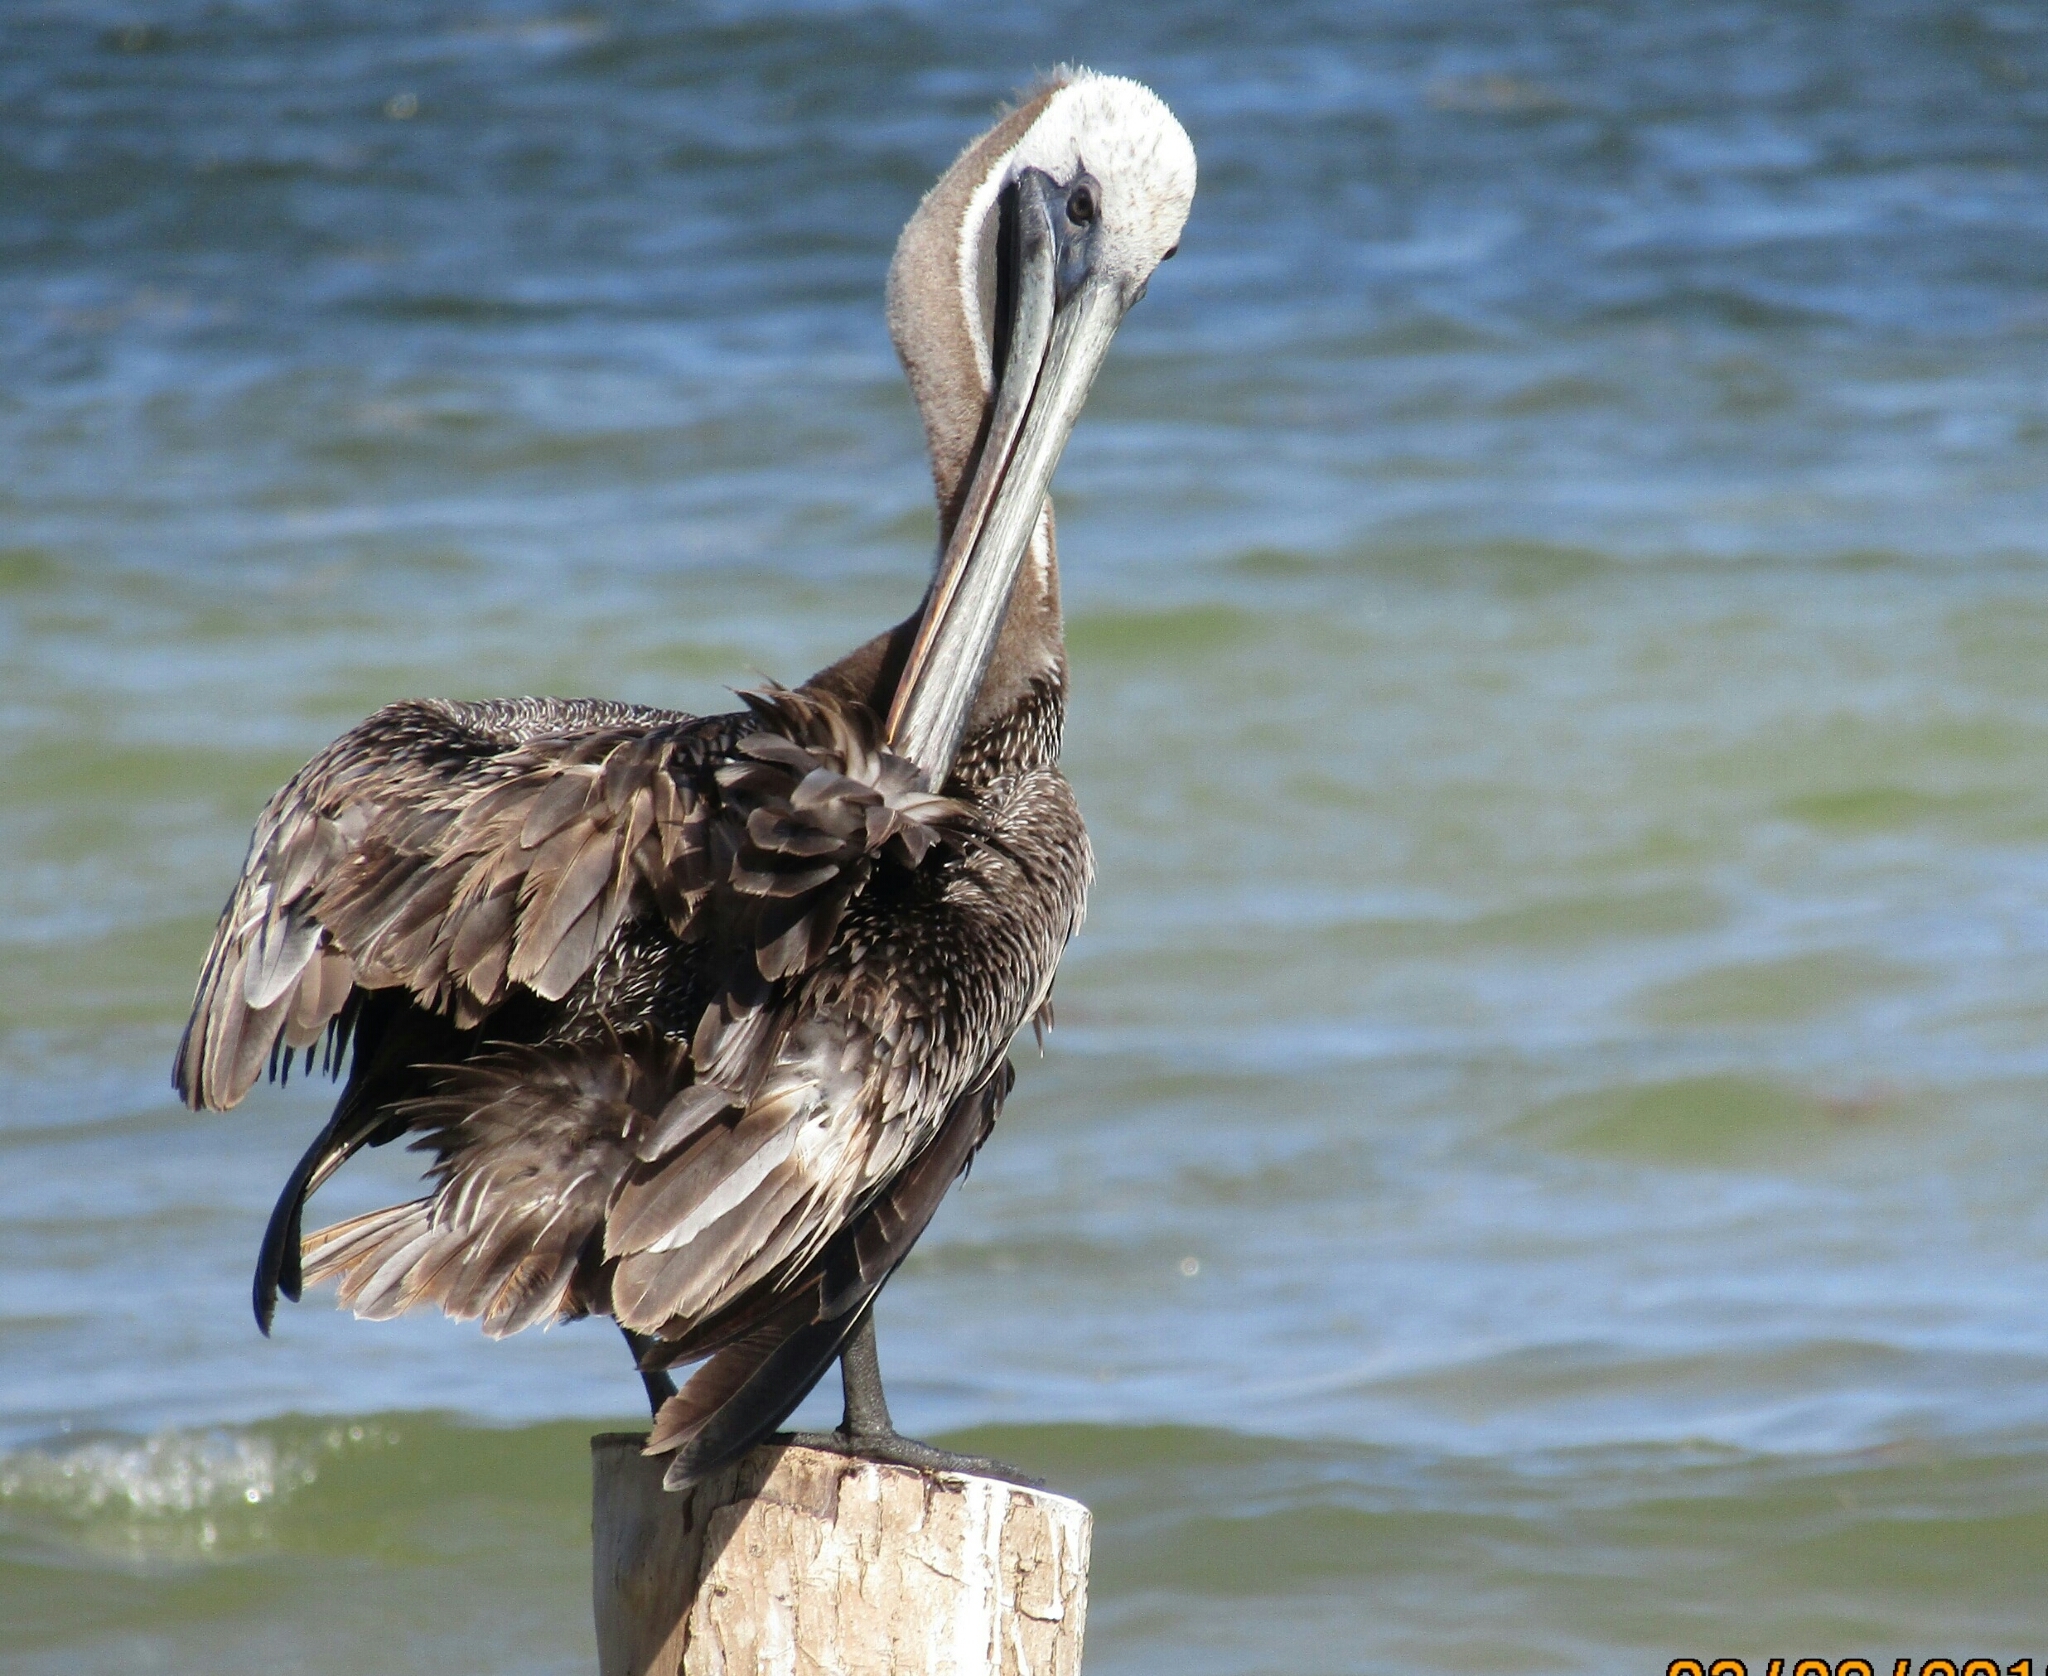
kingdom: Animalia
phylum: Chordata
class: Aves
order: Pelecaniformes
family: Pelecanidae
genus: Pelecanus
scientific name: Pelecanus occidentalis
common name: Brown pelican
